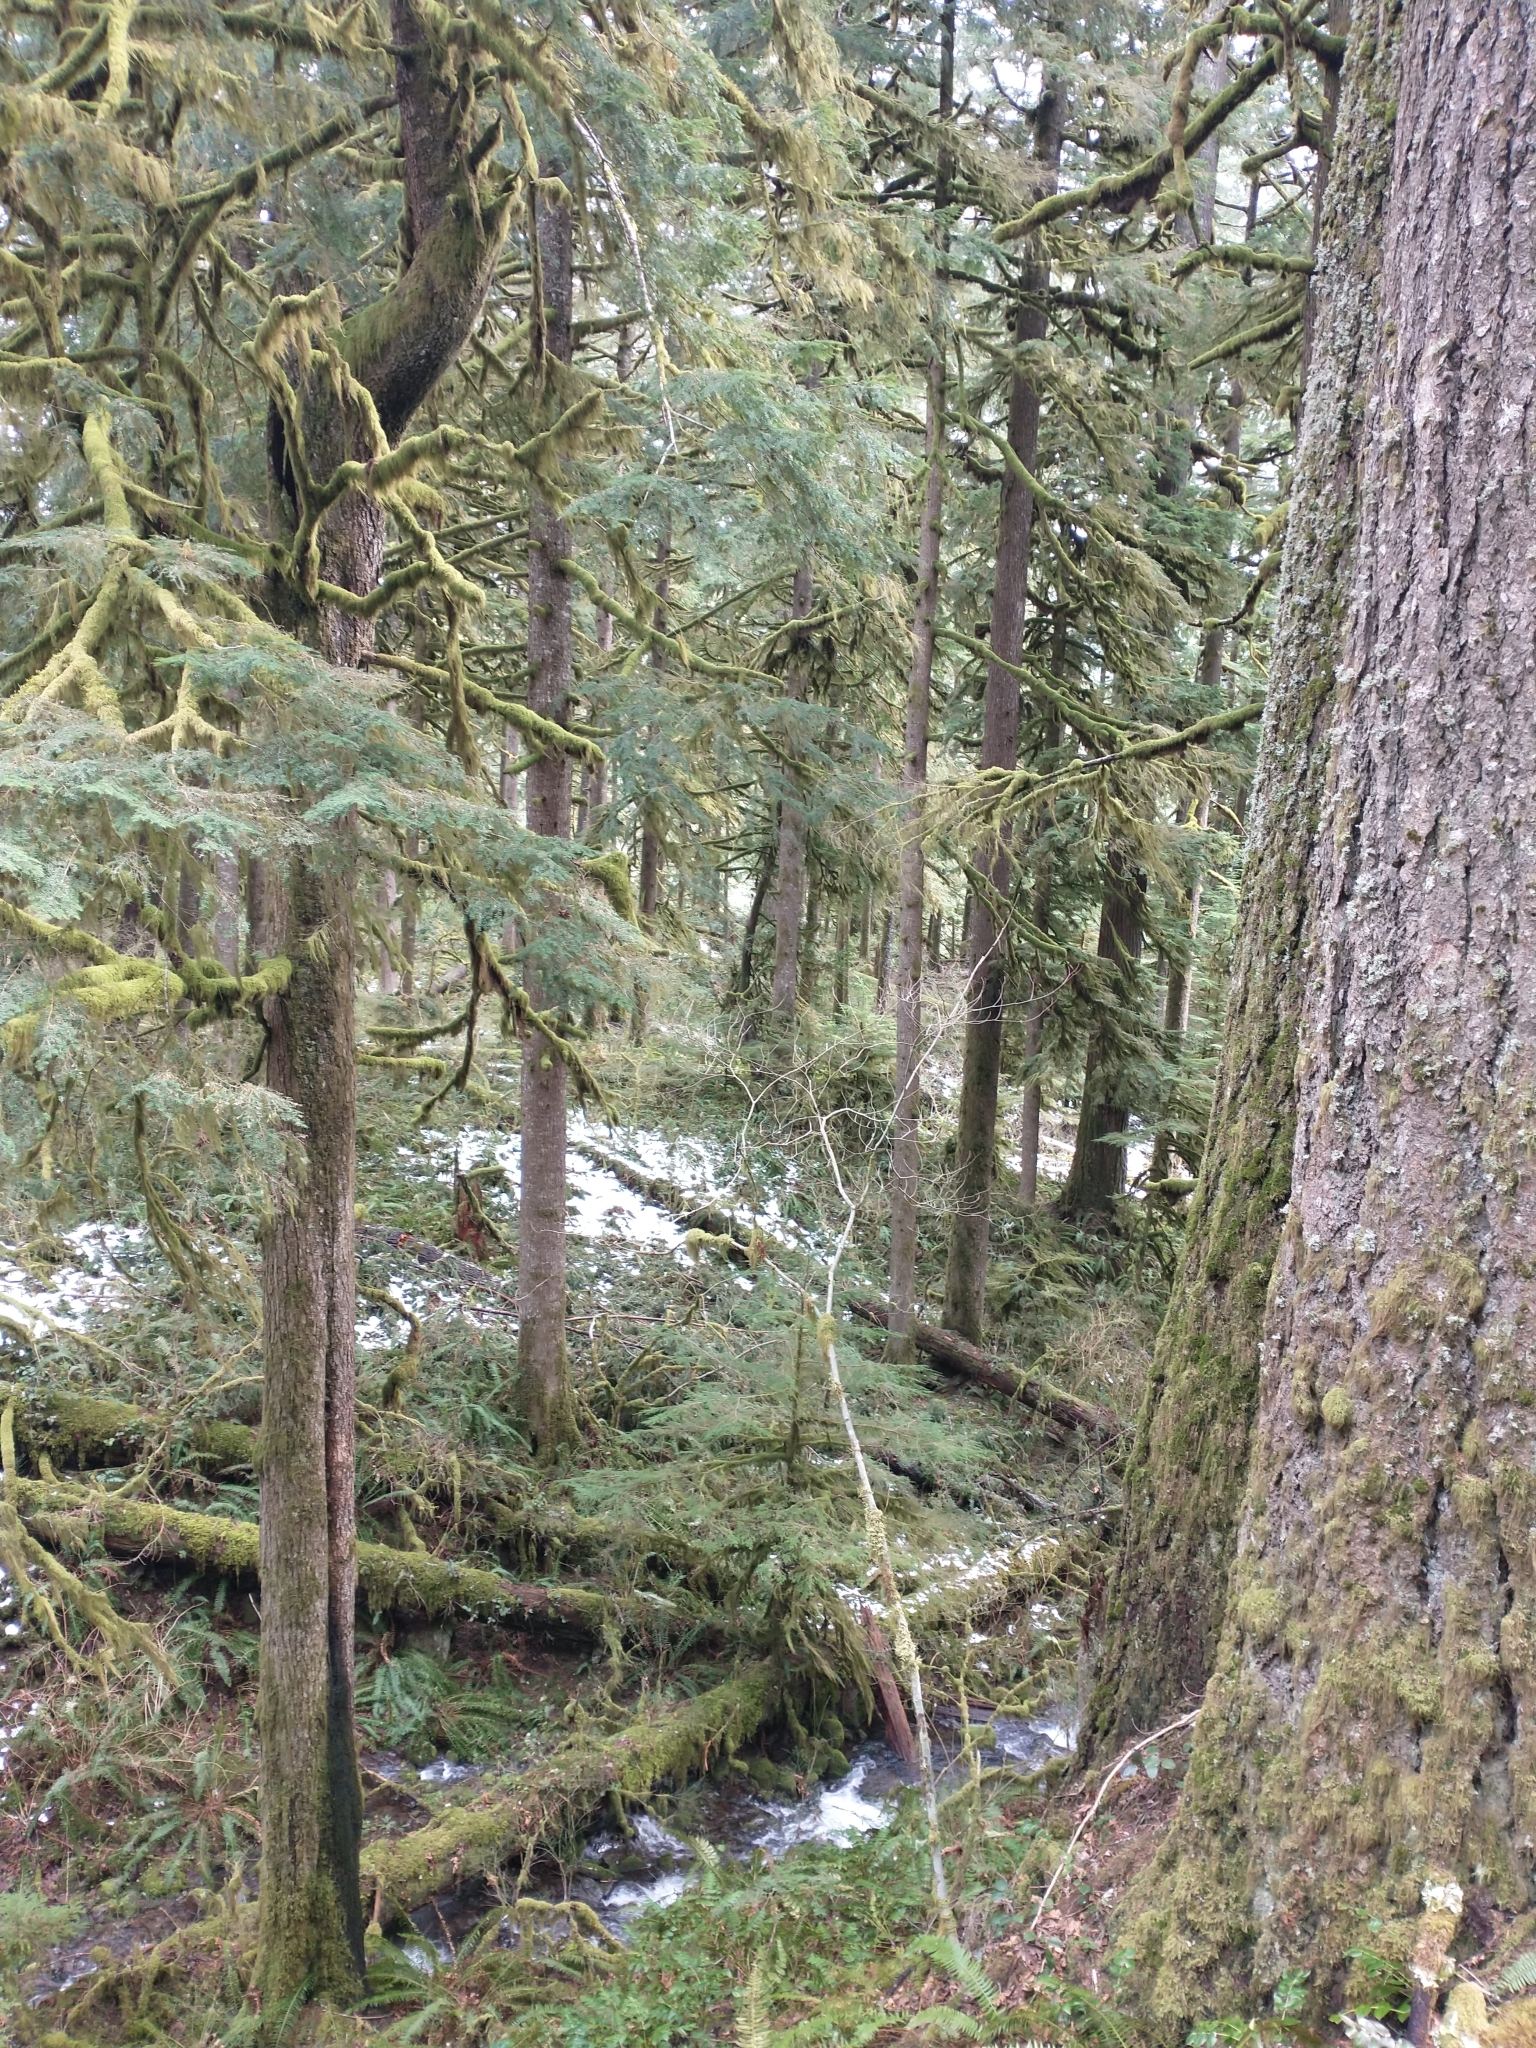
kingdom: Plantae
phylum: Tracheophyta
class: Pinopsida
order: Pinales
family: Pinaceae
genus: Tsuga
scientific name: Tsuga heterophylla
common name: Western hemlock
